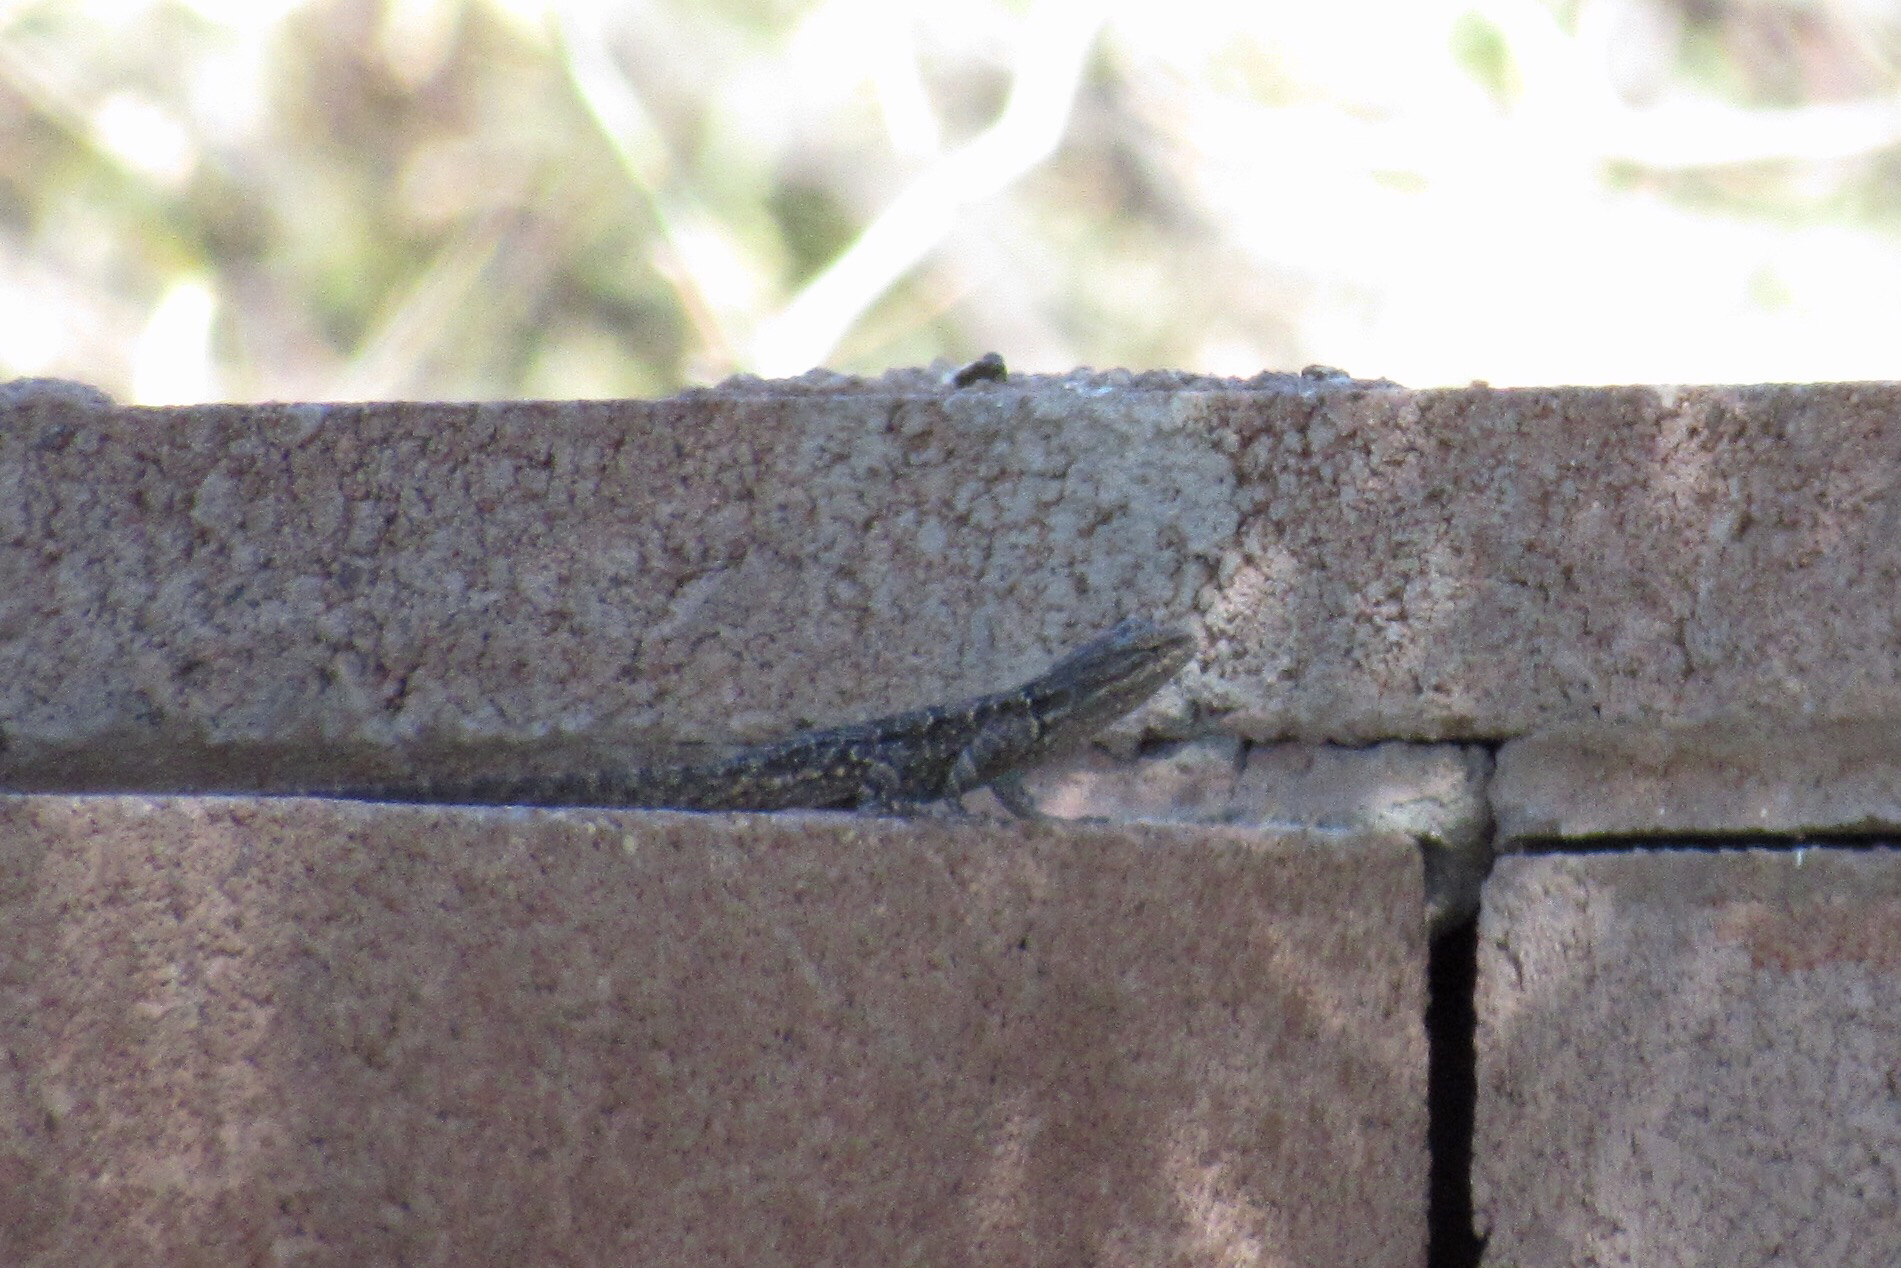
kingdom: Animalia
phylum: Chordata
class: Squamata
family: Phrynosomatidae
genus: Urosaurus
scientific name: Urosaurus ornatus
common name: Ornate tree lizard
